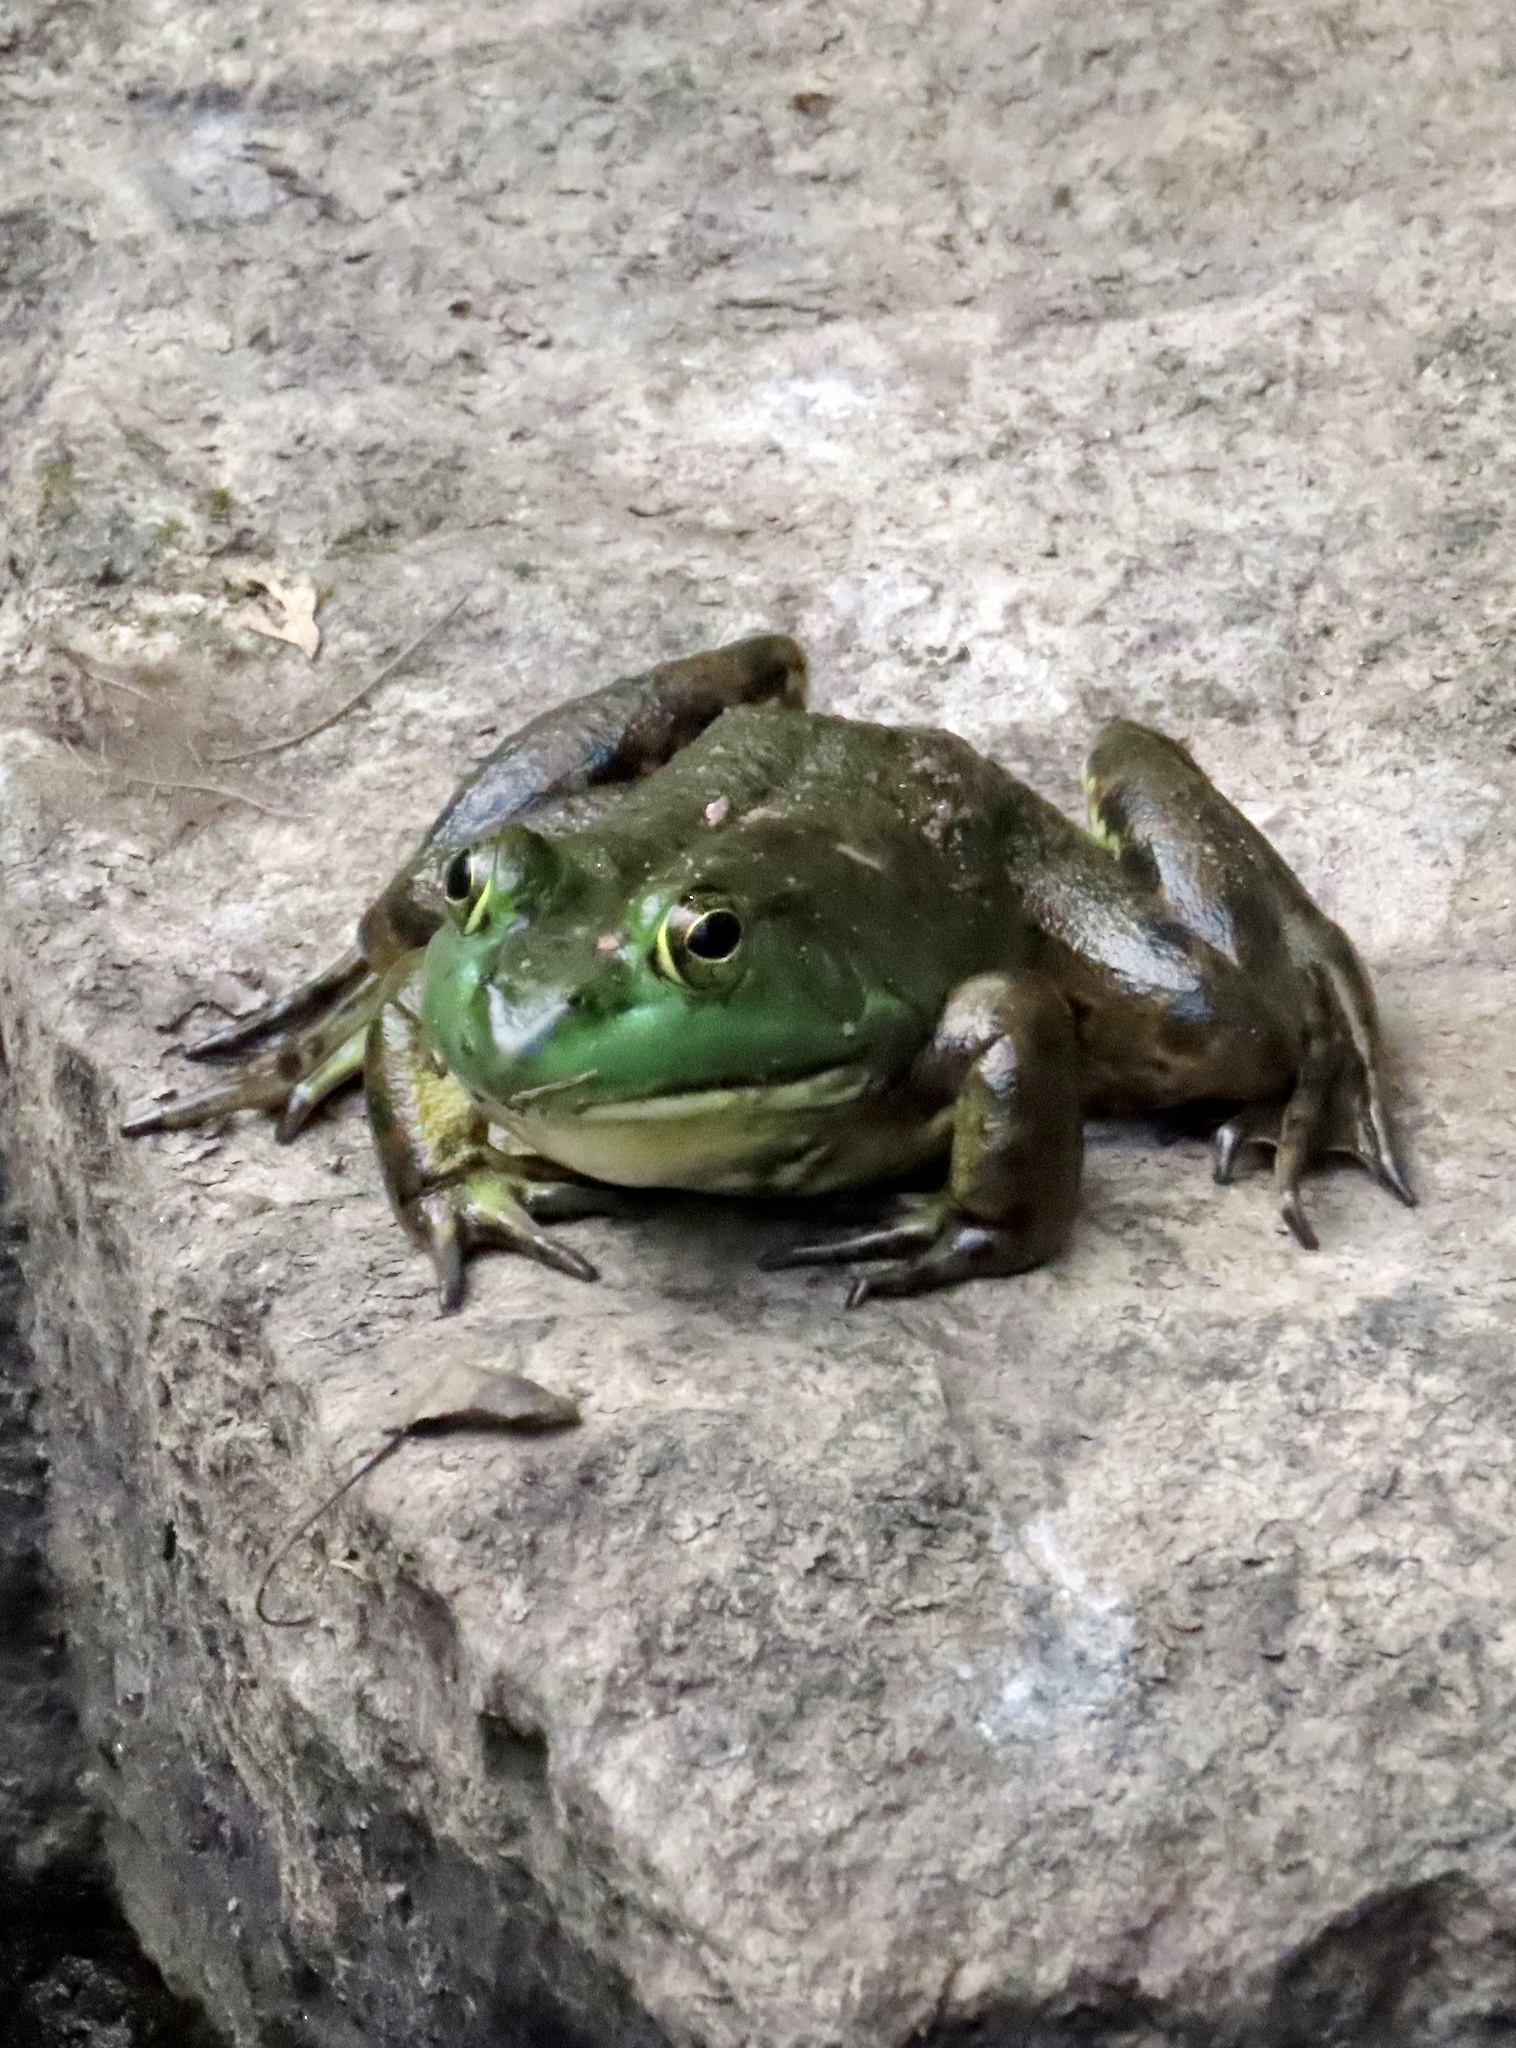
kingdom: Animalia
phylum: Chordata
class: Amphibia
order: Anura
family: Ranidae
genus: Lithobates
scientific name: Lithobates catesbeianus
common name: American bullfrog
